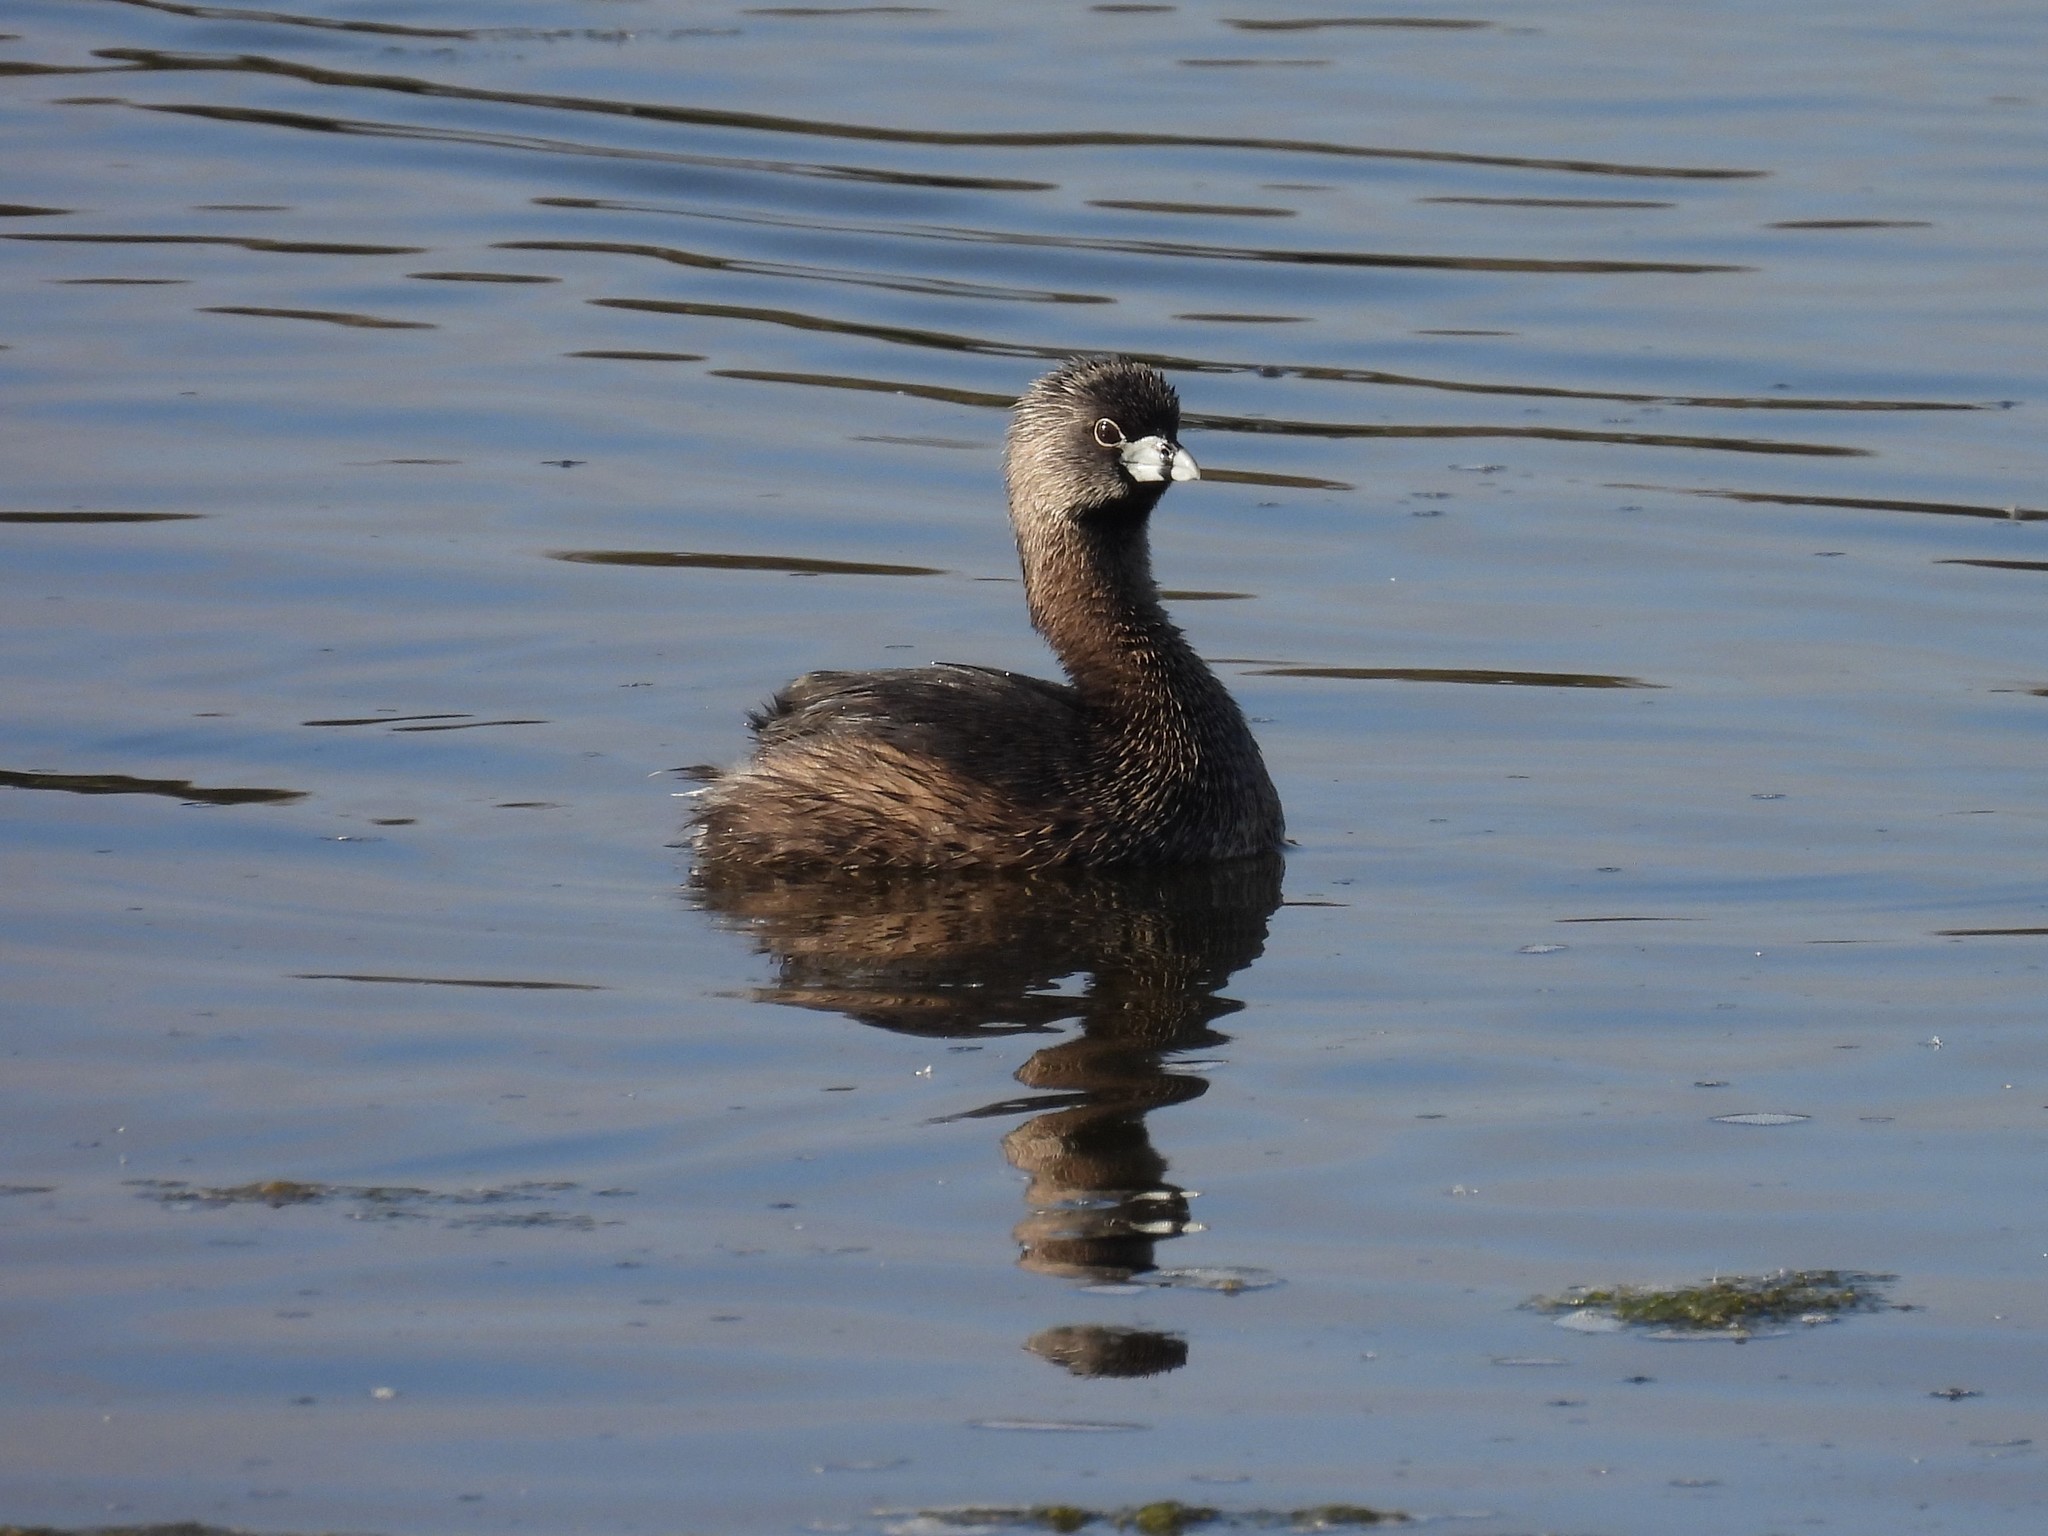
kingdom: Animalia
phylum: Chordata
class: Aves
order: Podicipediformes
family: Podicipedidae
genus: Podilymbus
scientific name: Podilymbus podiceps
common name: Pied-billed grebe
